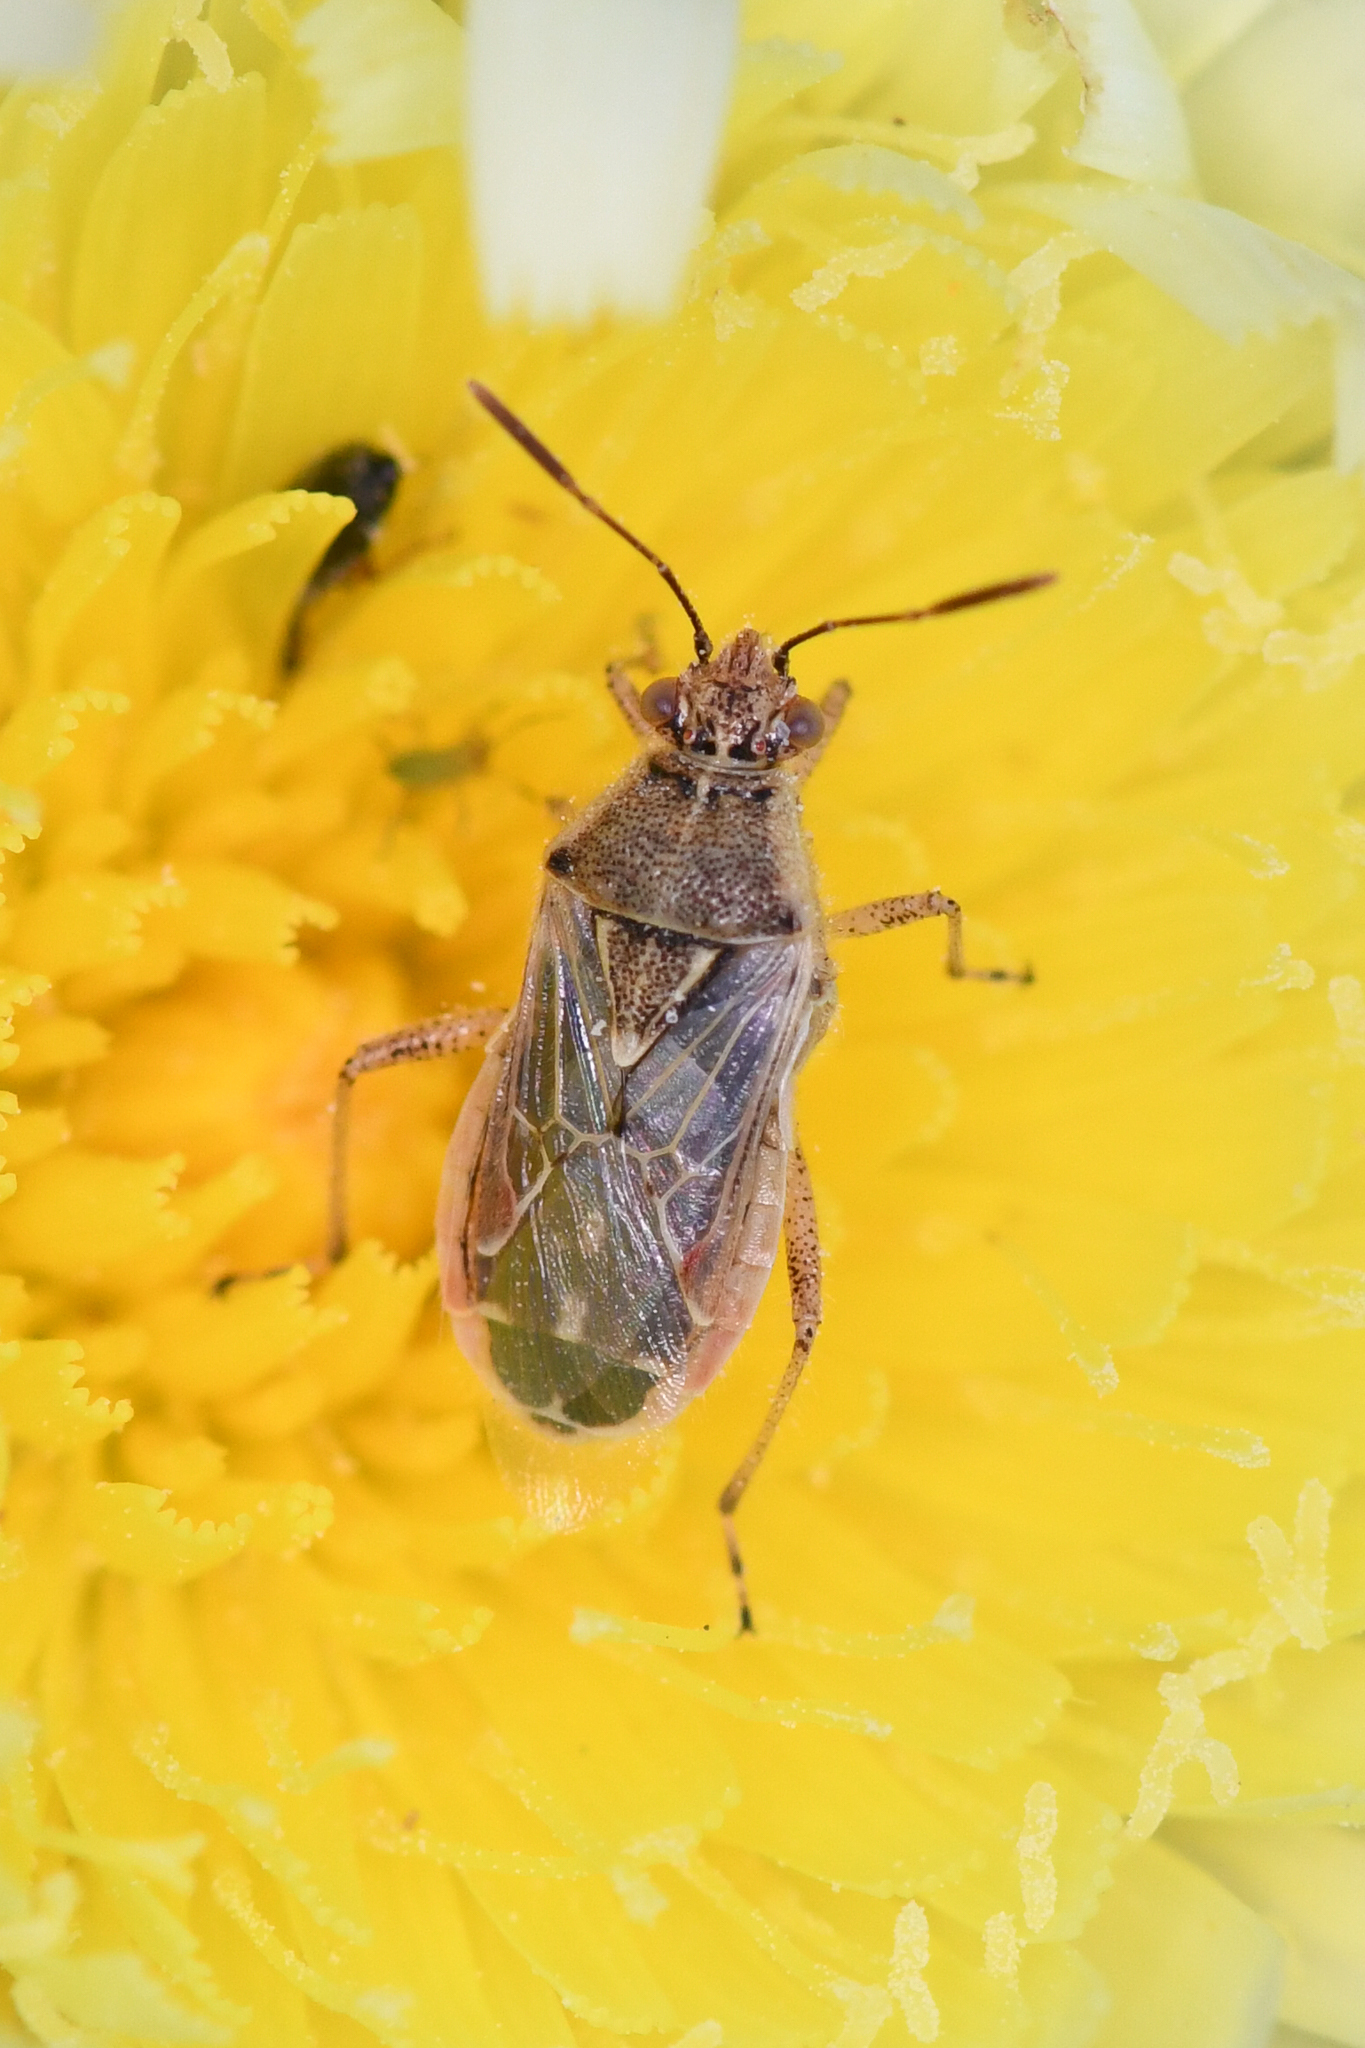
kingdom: Animalia
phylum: Arthropoda
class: Insecta
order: Hemiptera
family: Rhopalidae
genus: Liorhyssus
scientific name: Liorhyssus hyalinus
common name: Scentless plant bug
